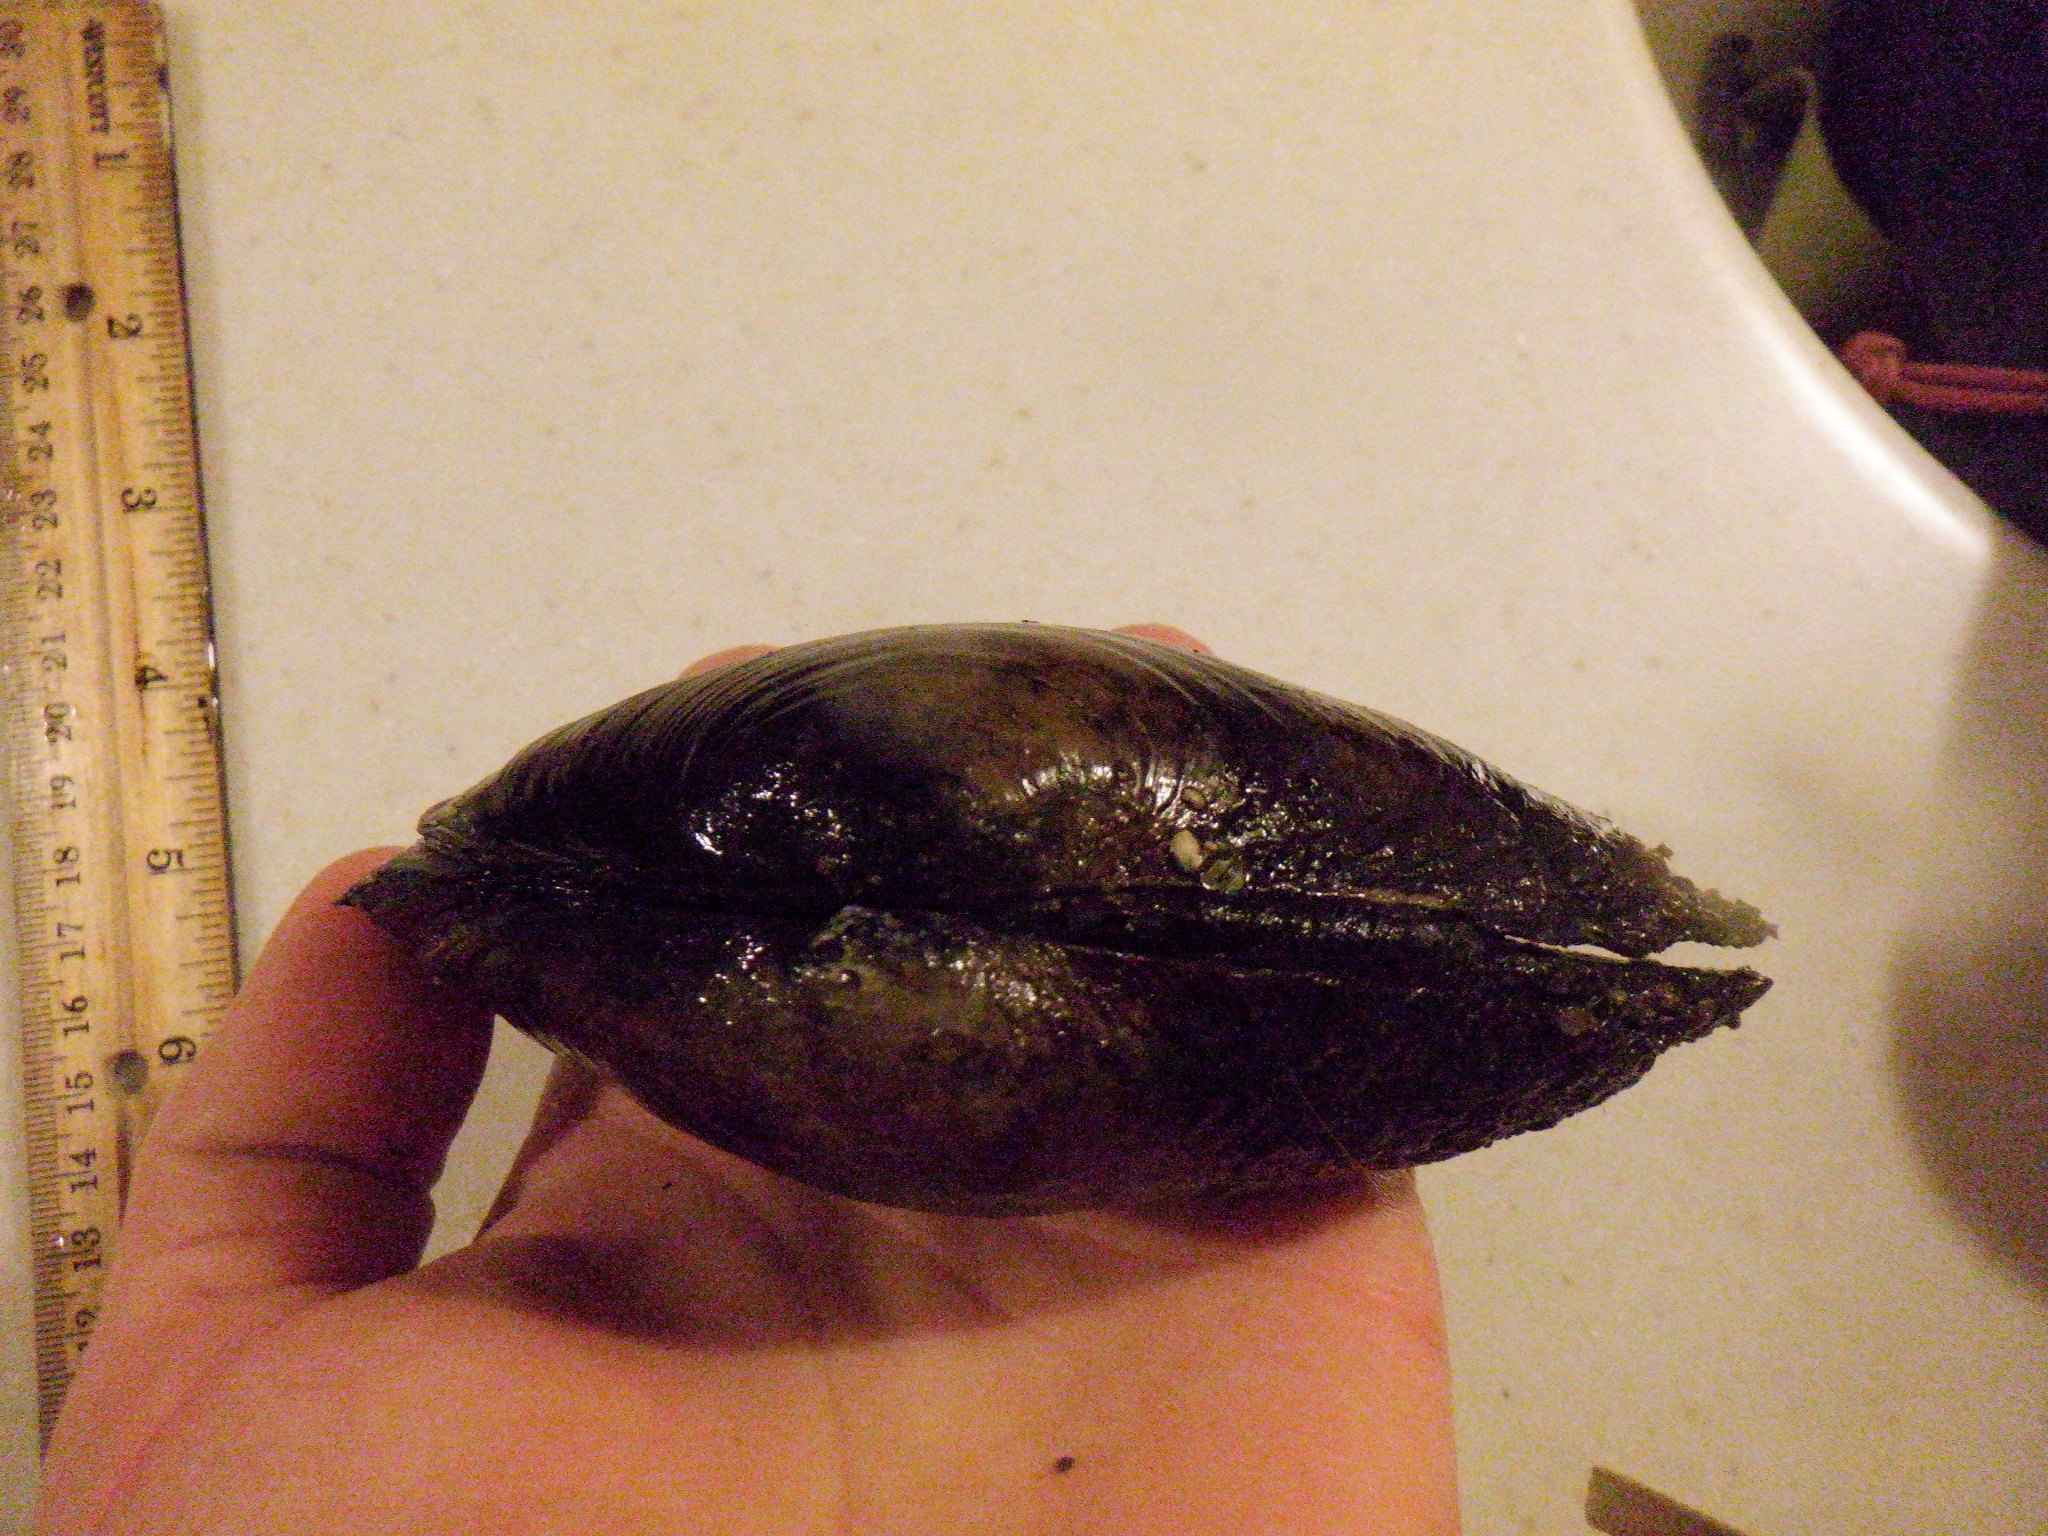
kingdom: Animalia
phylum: Mollusca
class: Bivalvia
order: Unionida
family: Unionidae
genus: Pyganodon
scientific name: Pyganodon grandis
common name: Giant floater
